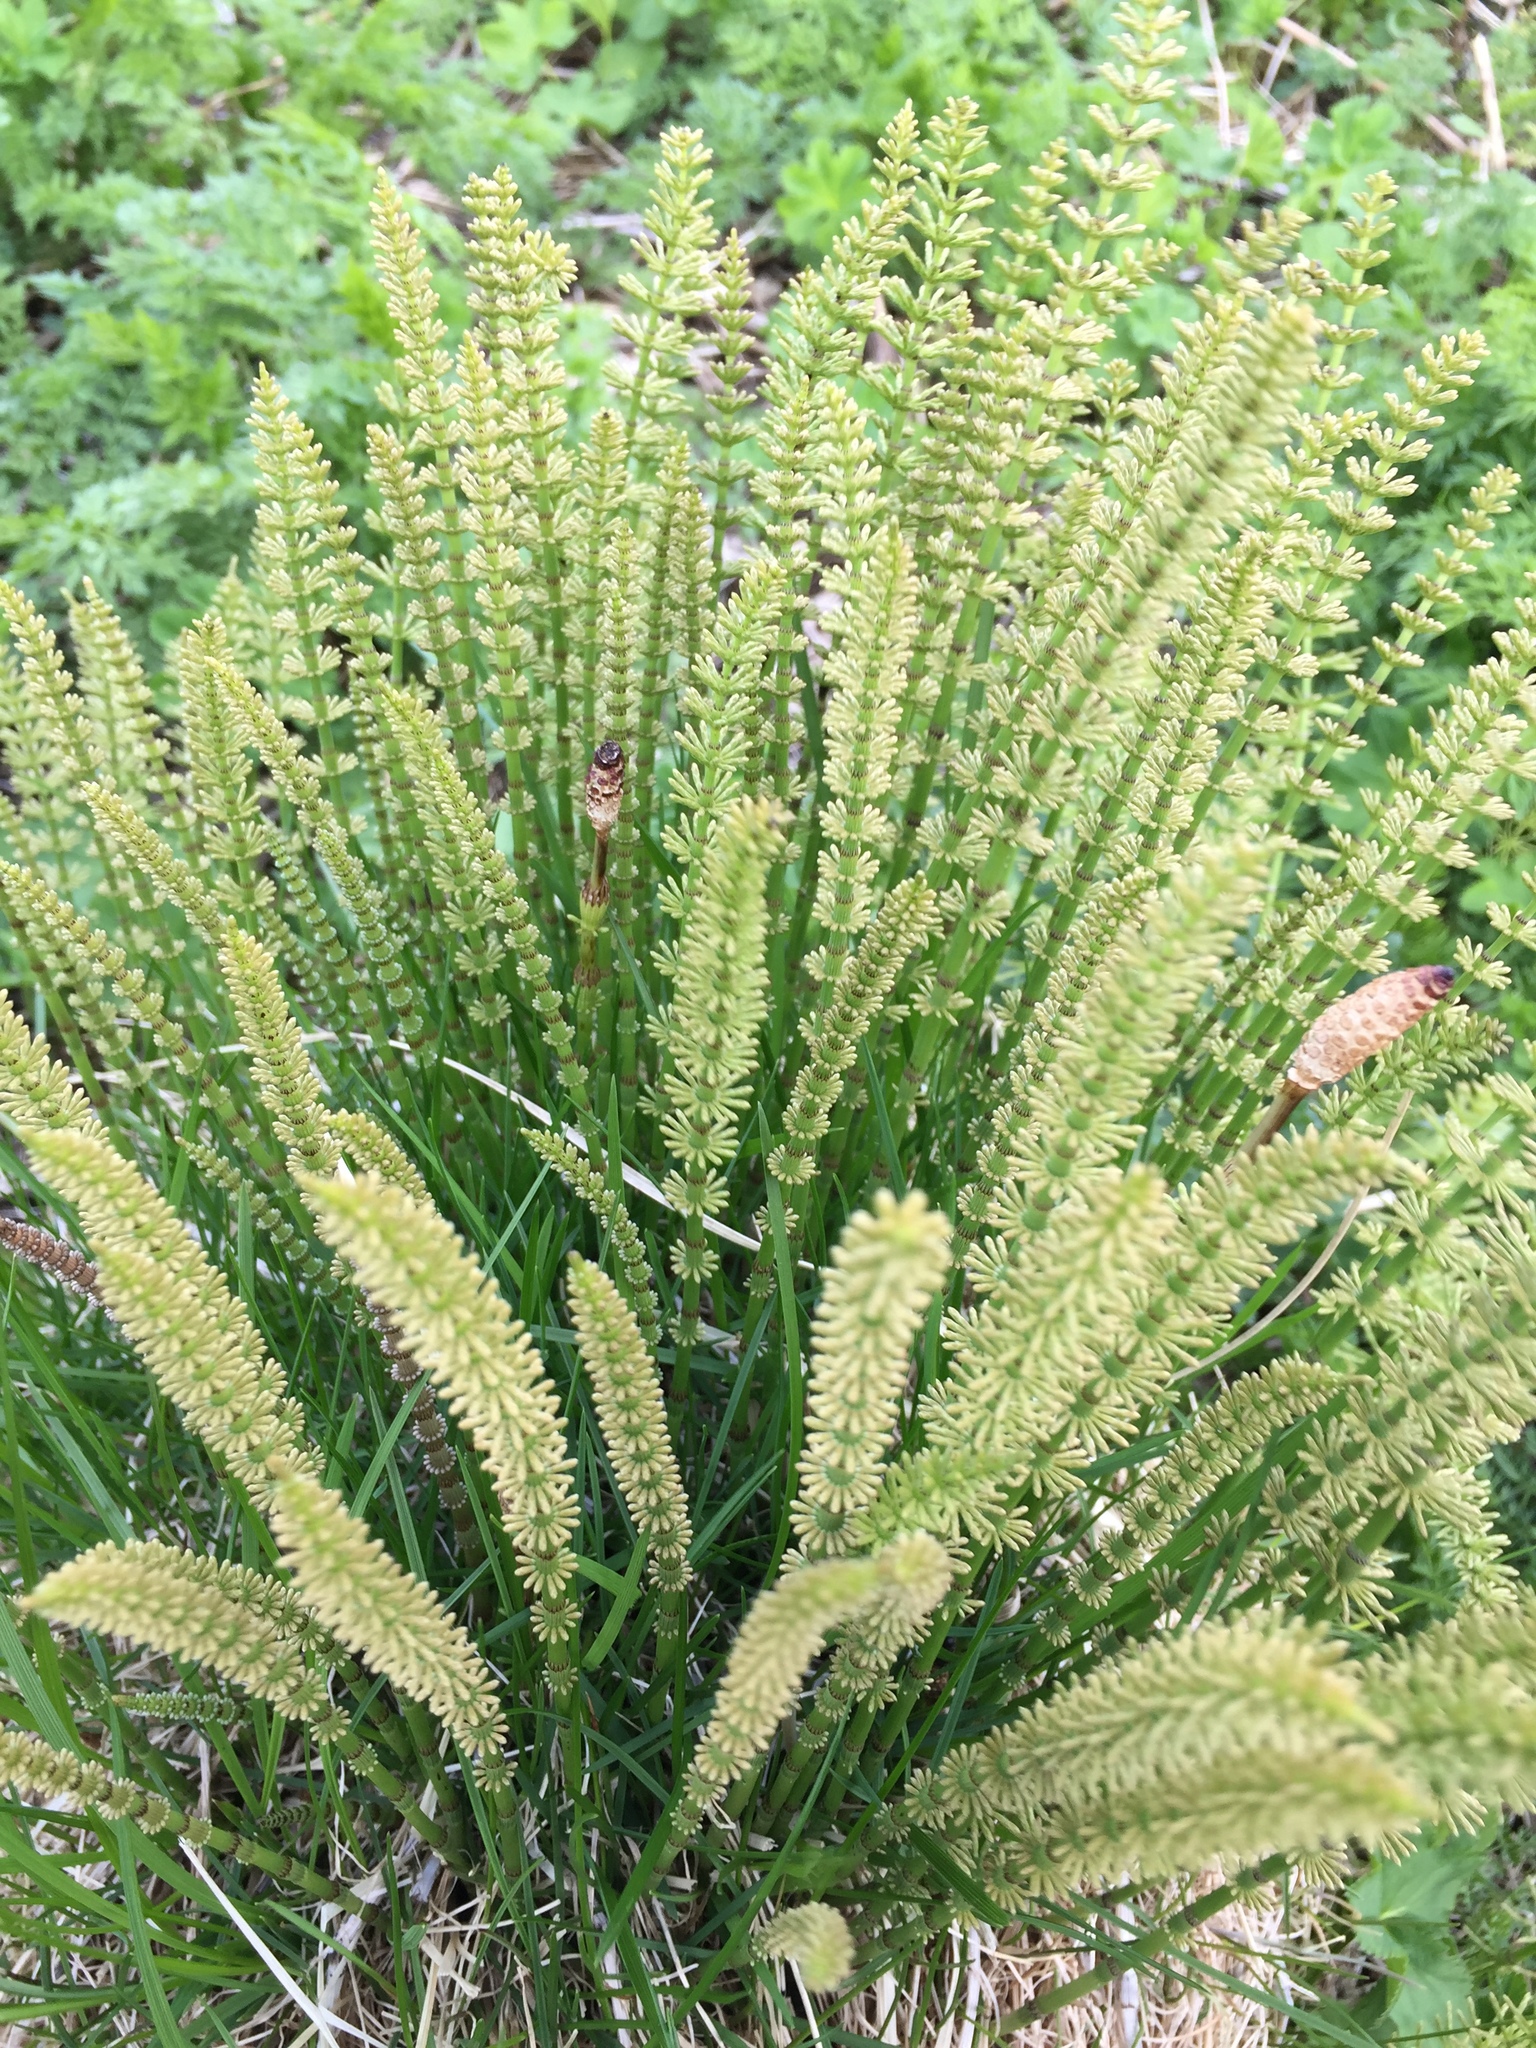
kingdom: Plantae
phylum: Tracheophyta
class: Polypodiopsida
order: Equisetales
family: Equisetaceae
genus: Equisetum
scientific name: Equisetum pratense
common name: Meadow horsetail
